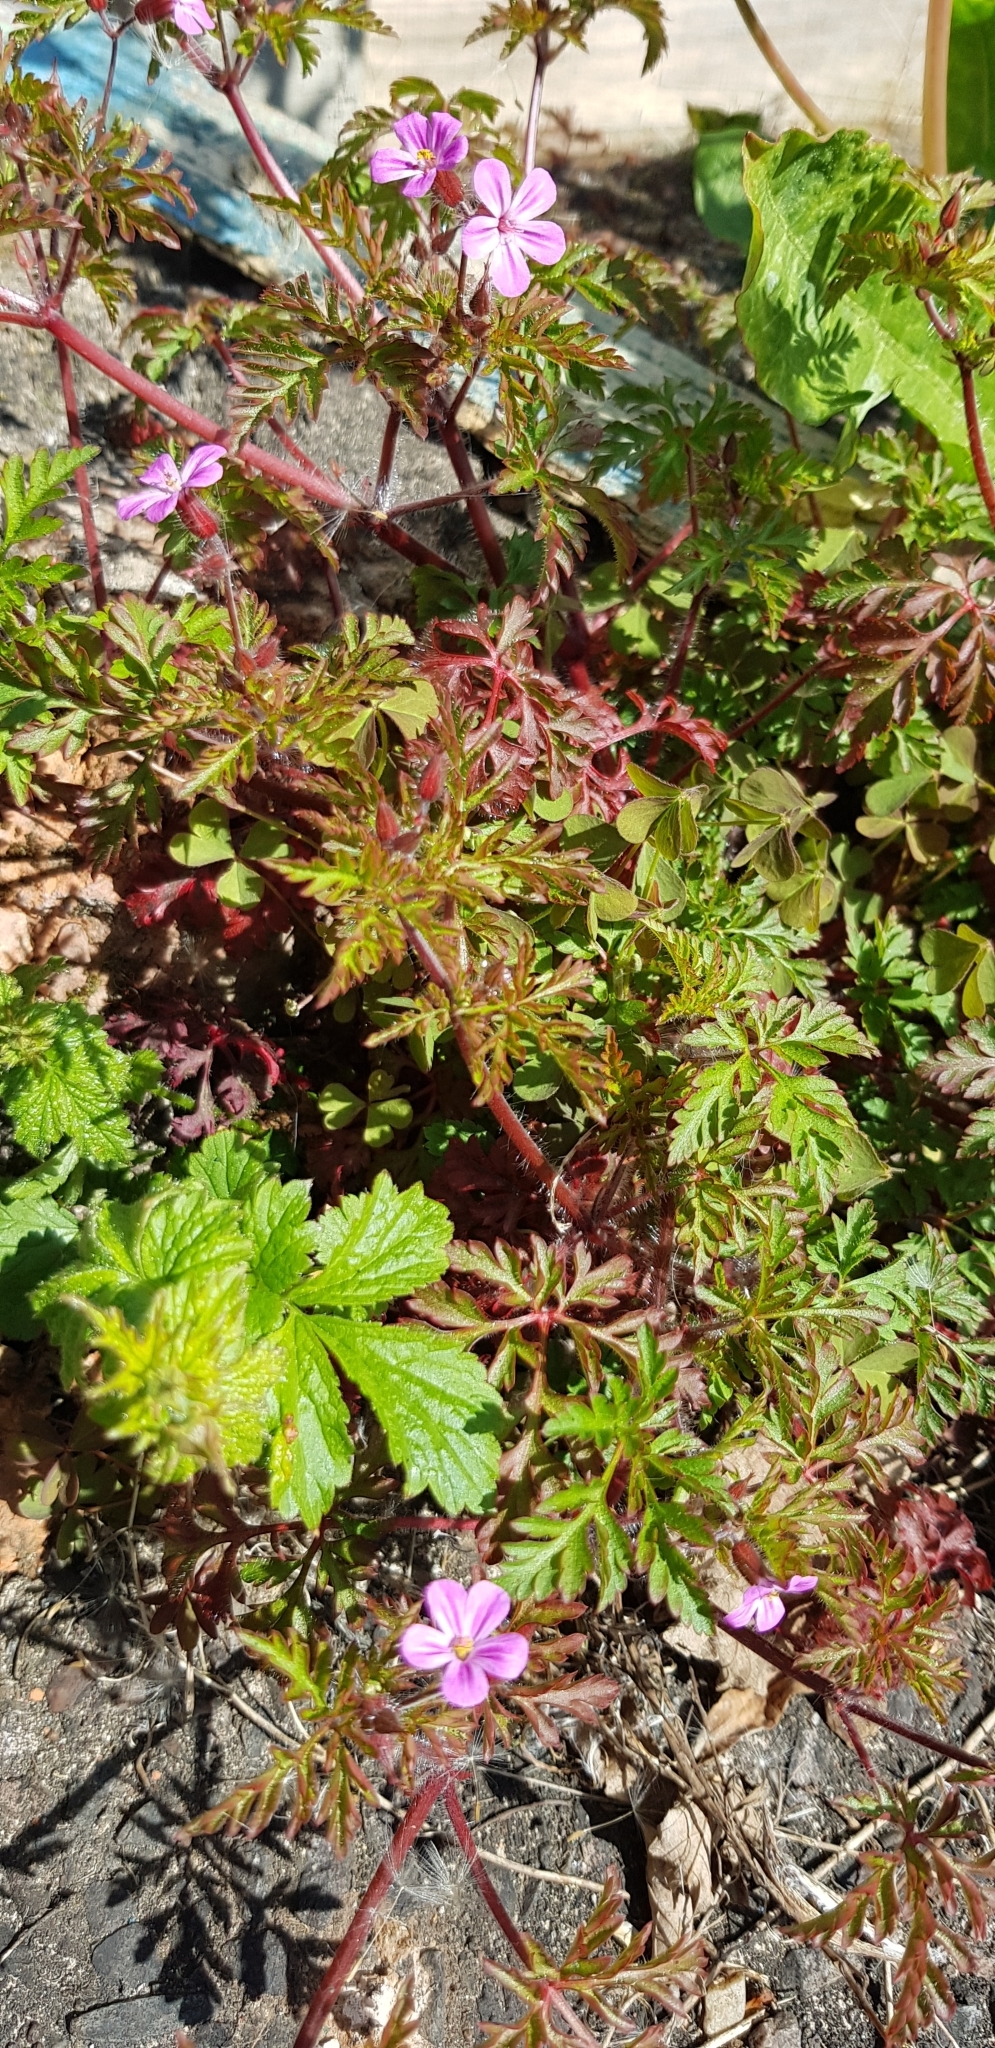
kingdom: Plantae
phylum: Tracheophyta
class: Magnoliopsida
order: Geraniales
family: Geraniaceae
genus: Geranium
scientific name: Geranium robertianum
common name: Herb-robert
